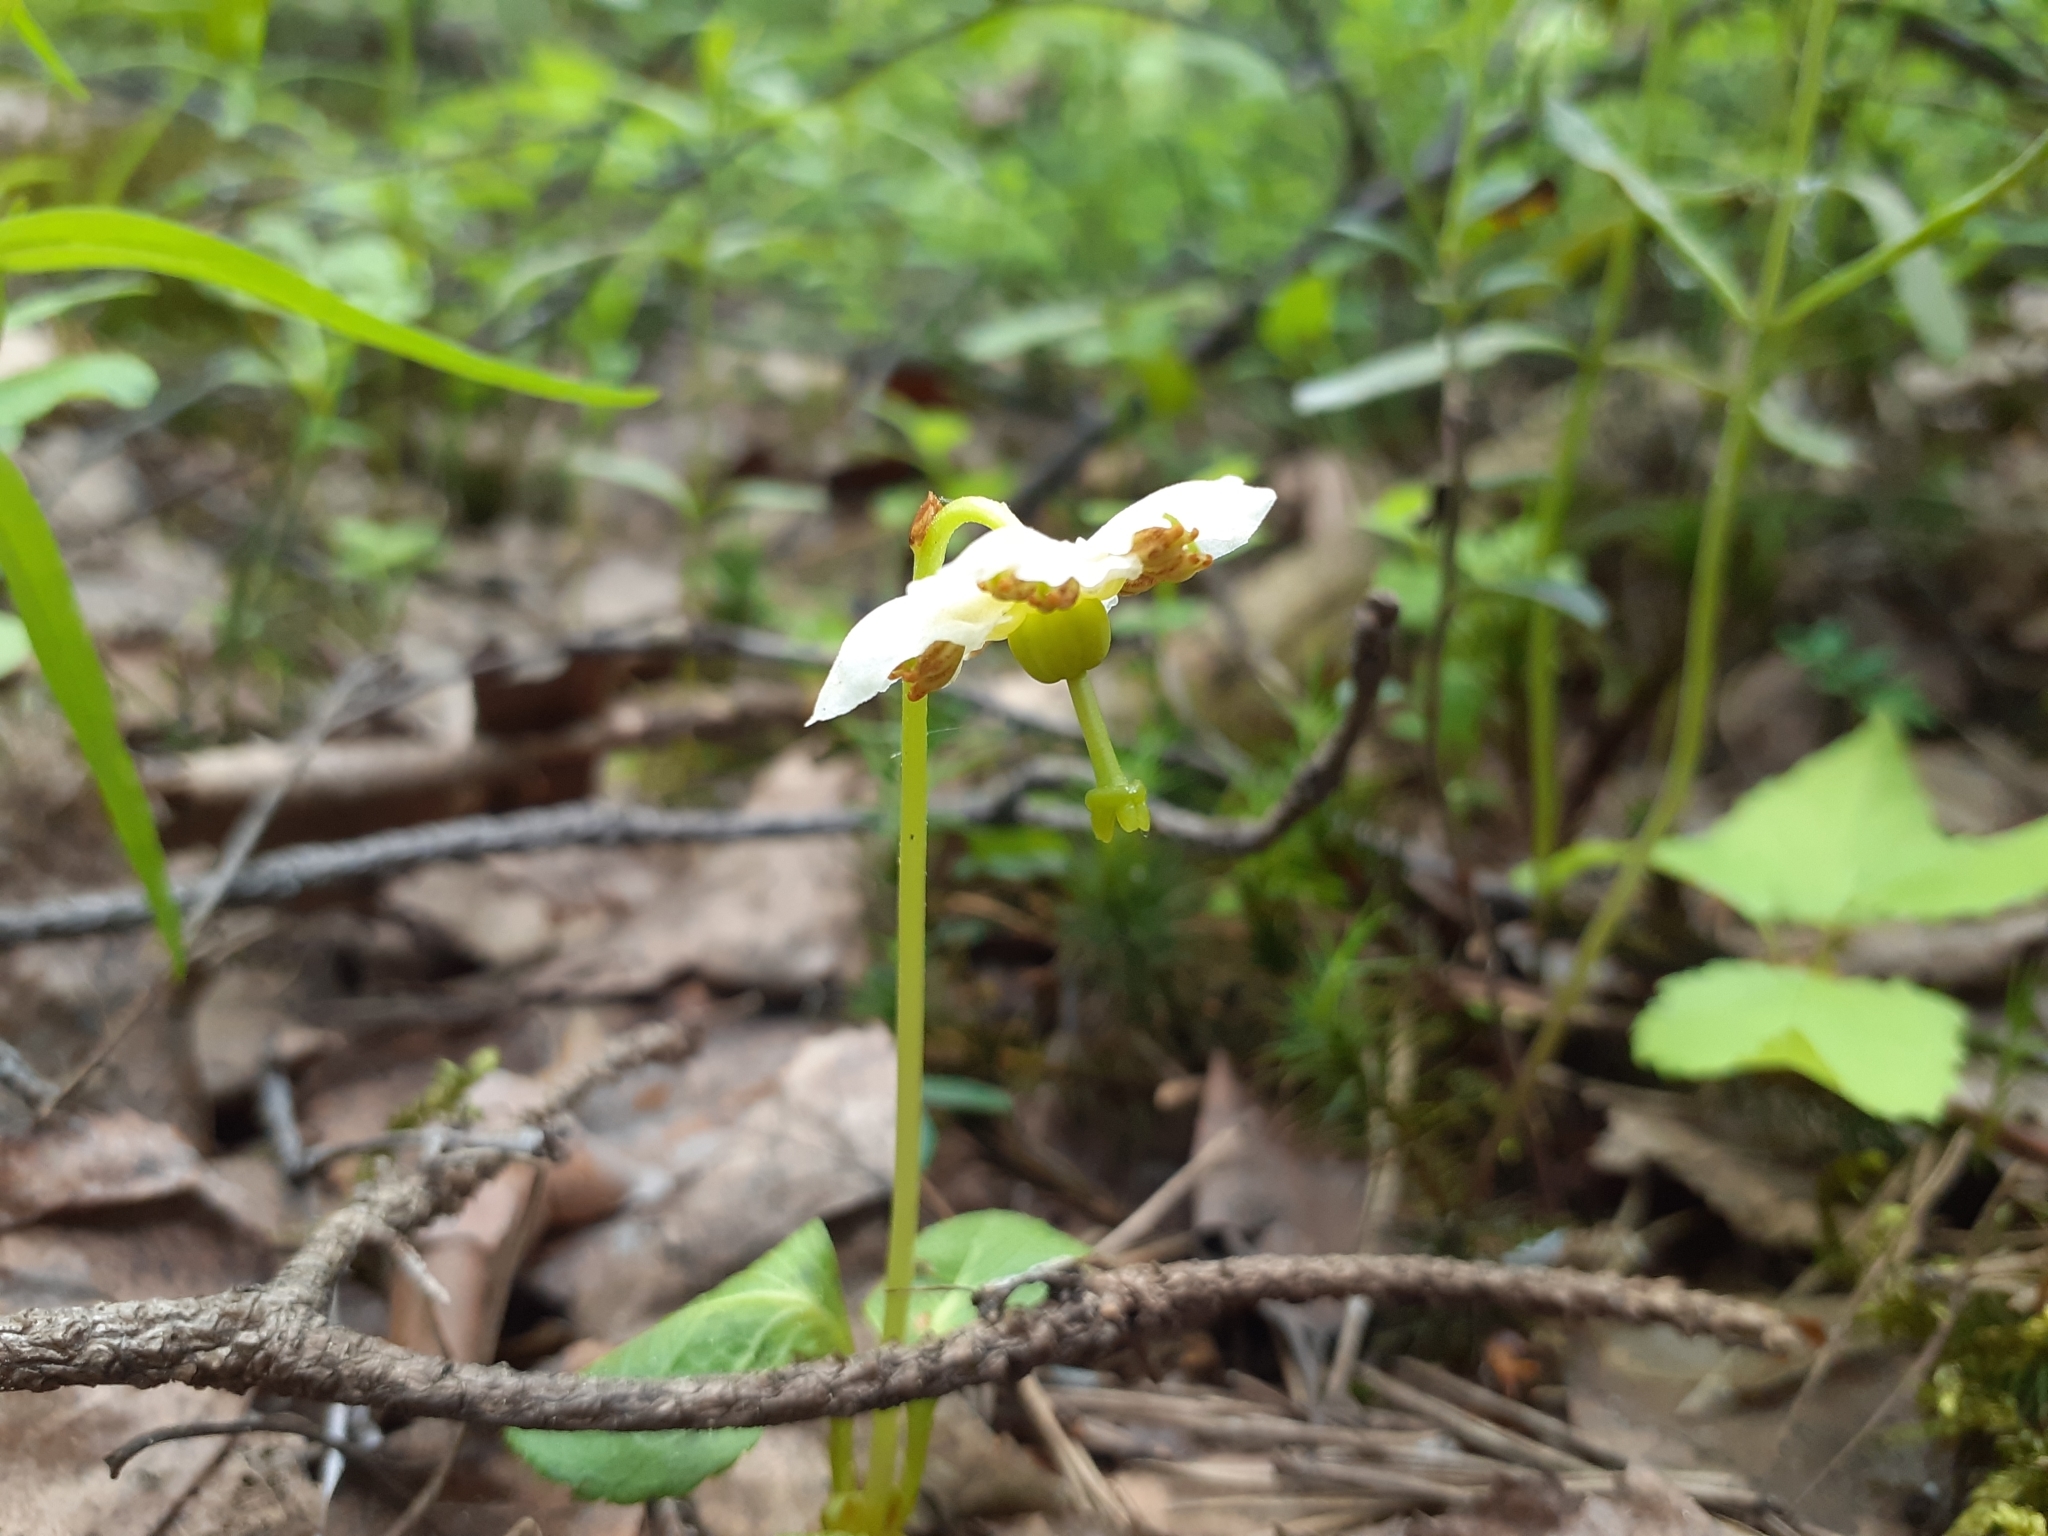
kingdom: Plantae
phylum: Tracheophyta
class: Magnoliopsida
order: Ericales
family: Ericaceae
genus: Moneses
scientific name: Moneses uniflora
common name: One-flowered wintergreen
